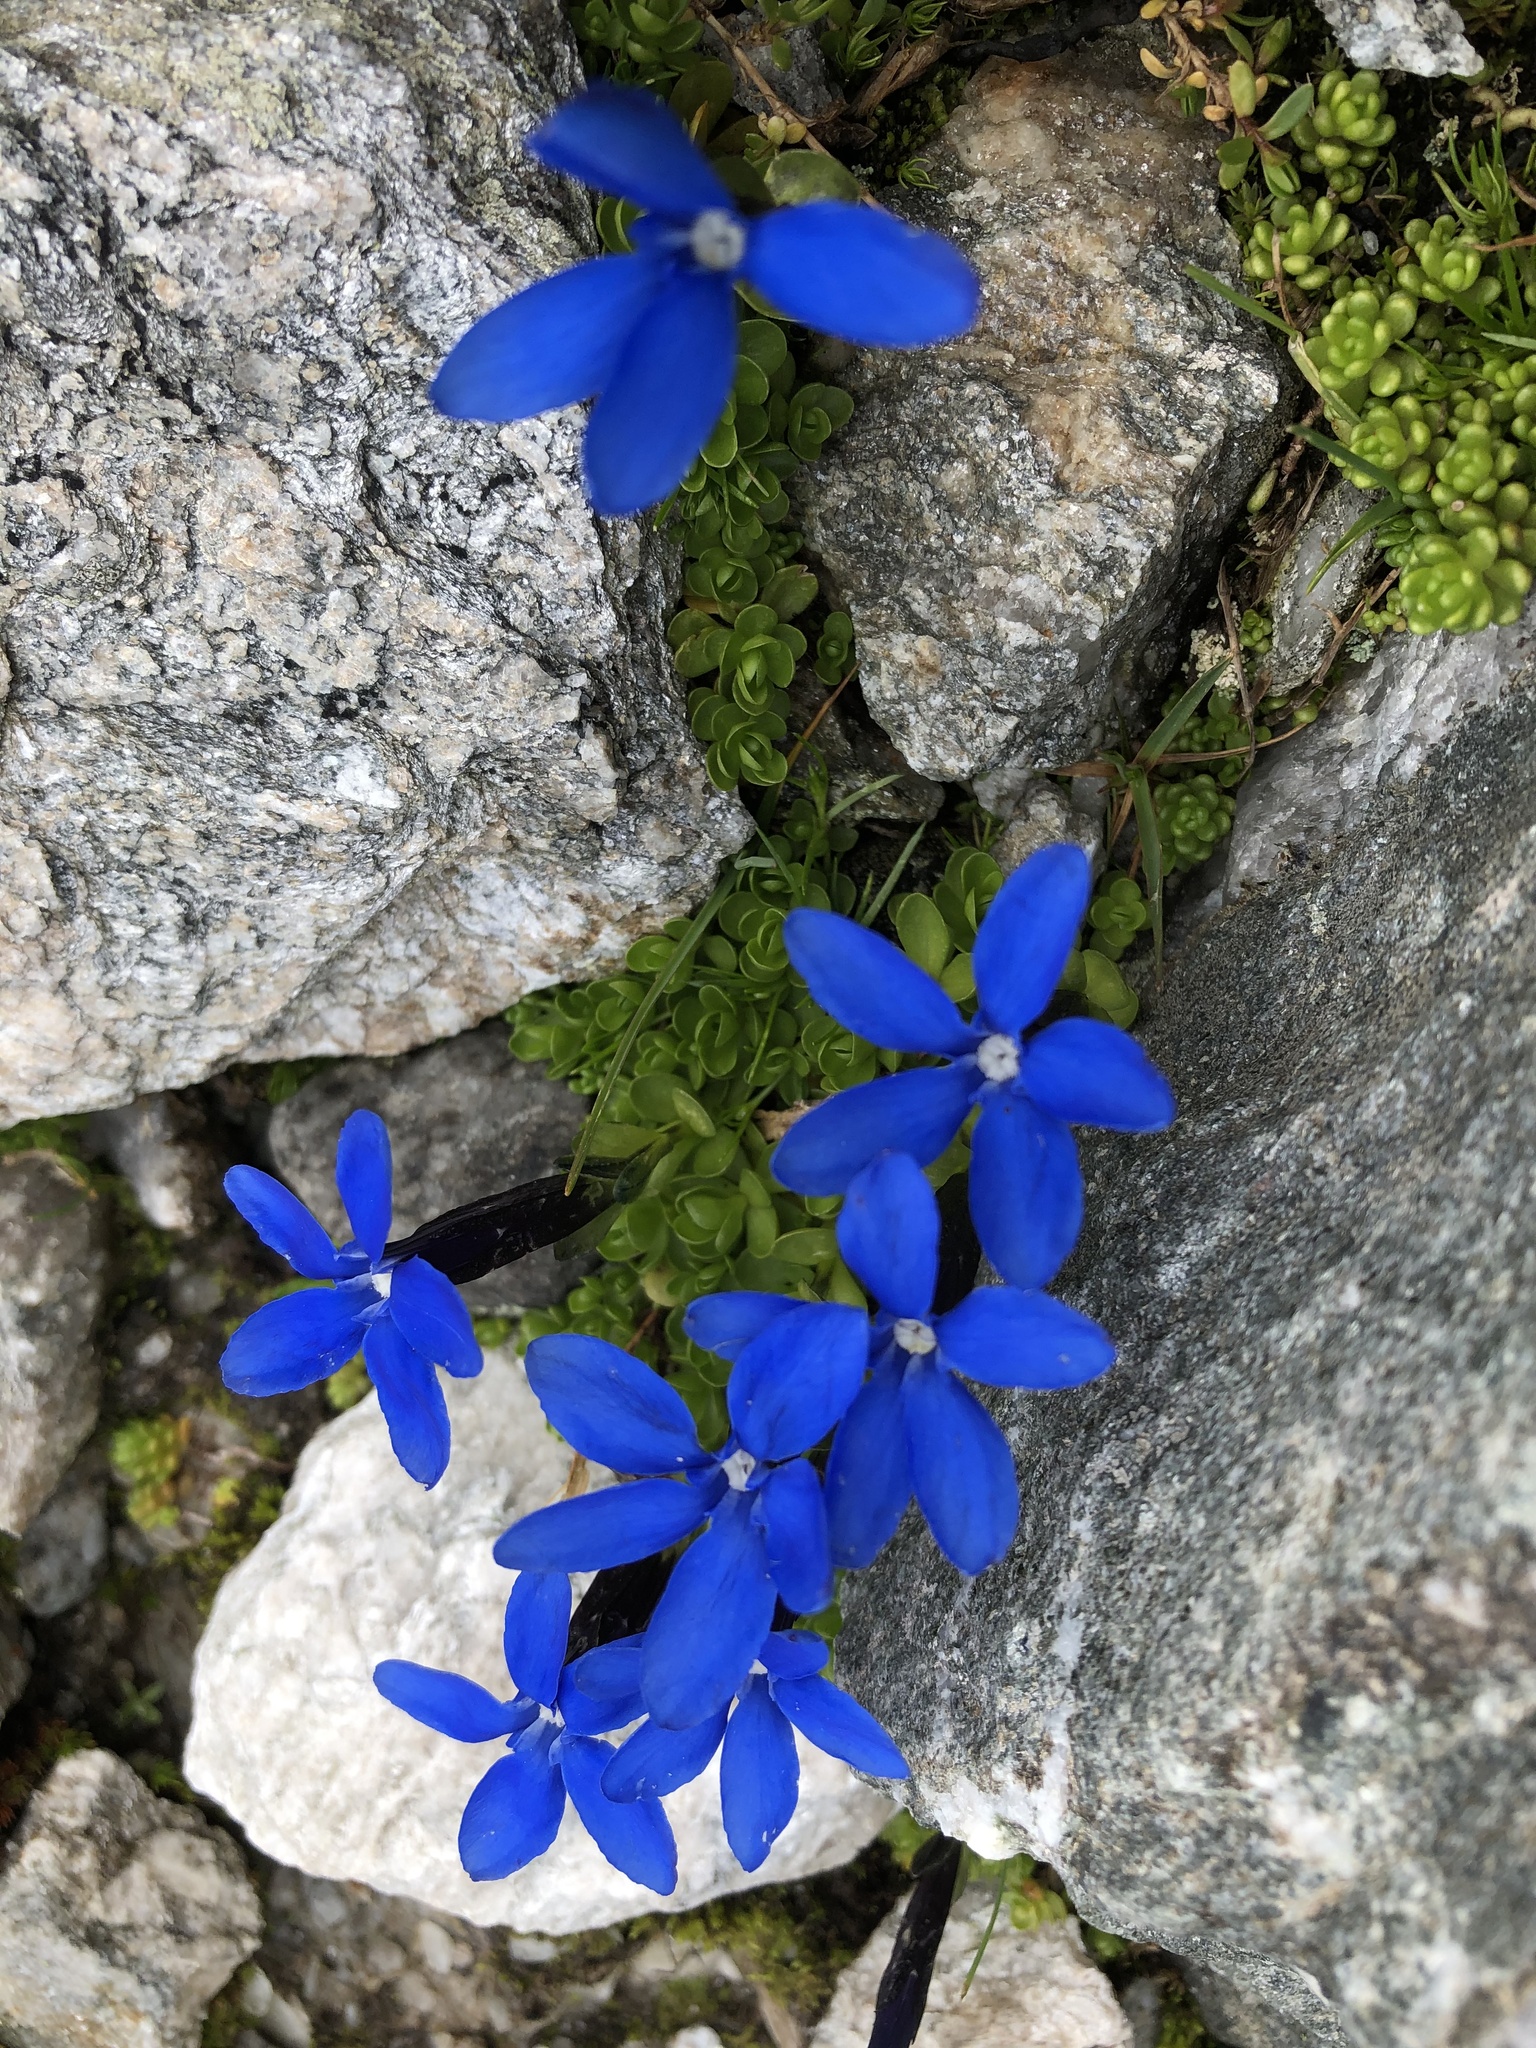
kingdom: Plantae
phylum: Tracheophyta
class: Magnoliopsida
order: Gentianales
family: Gentianaceae
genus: Gentiana
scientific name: Gentiana bavarica
